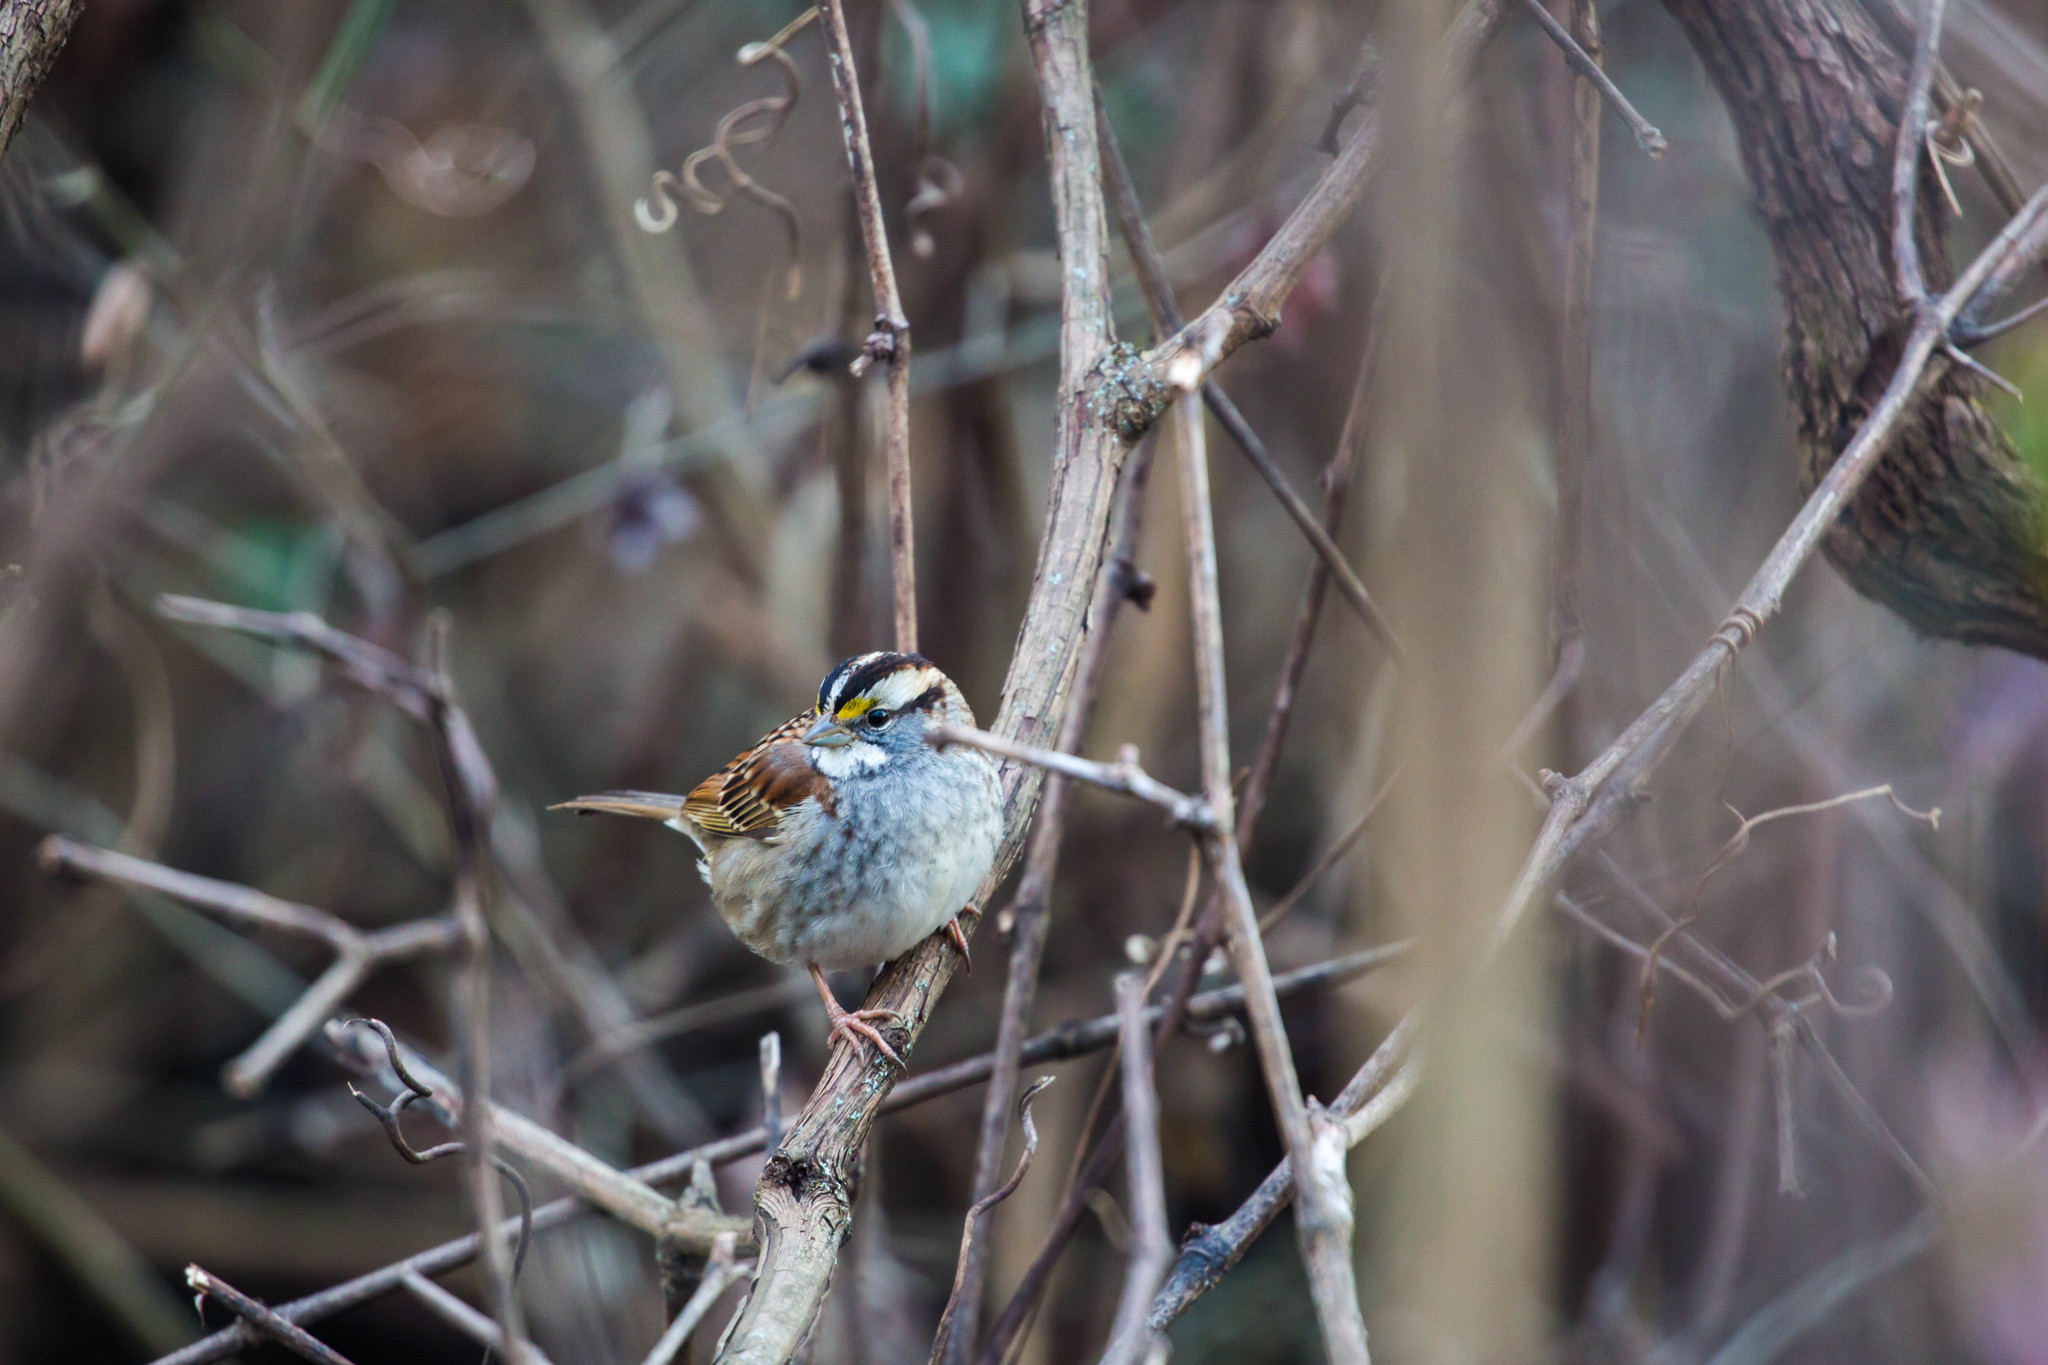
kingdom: Animalia
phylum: Chordata
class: Aves
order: Passeriformes
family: Passerellidae
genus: Zonotrichia
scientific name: Zonotrichia albicollis
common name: White-throated sparrow
